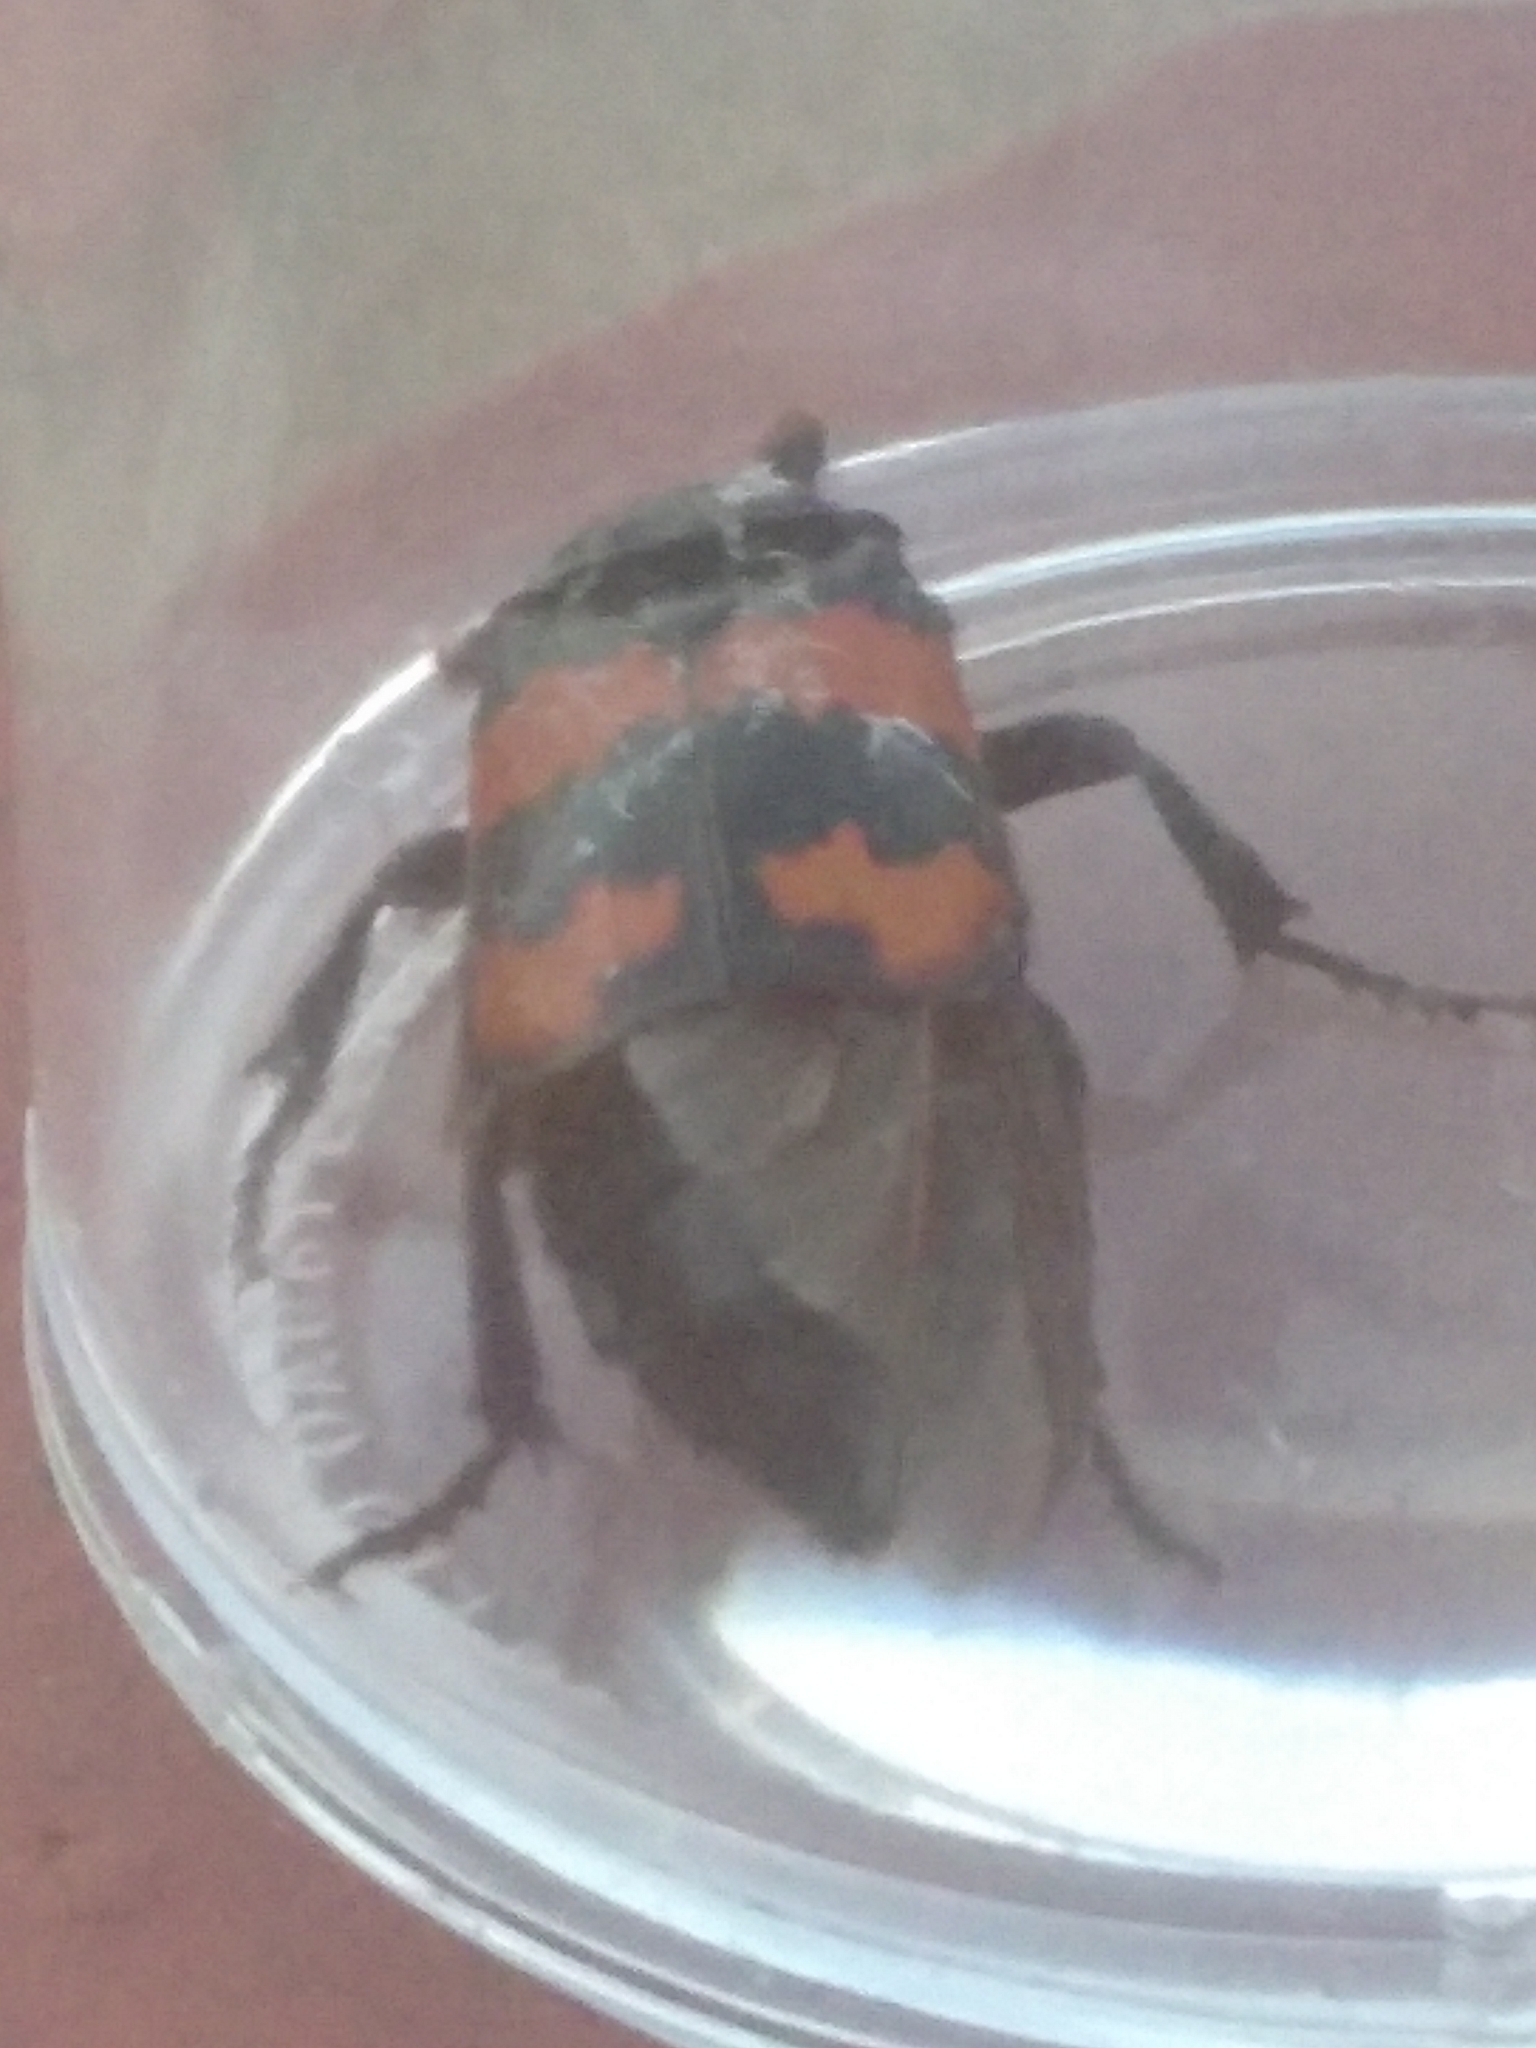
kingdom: Animalia
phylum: Arthropoda
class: Insecta
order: Coleoptera
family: Staphylinidae
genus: Nicrophorus
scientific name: Nicrophorus investigator
